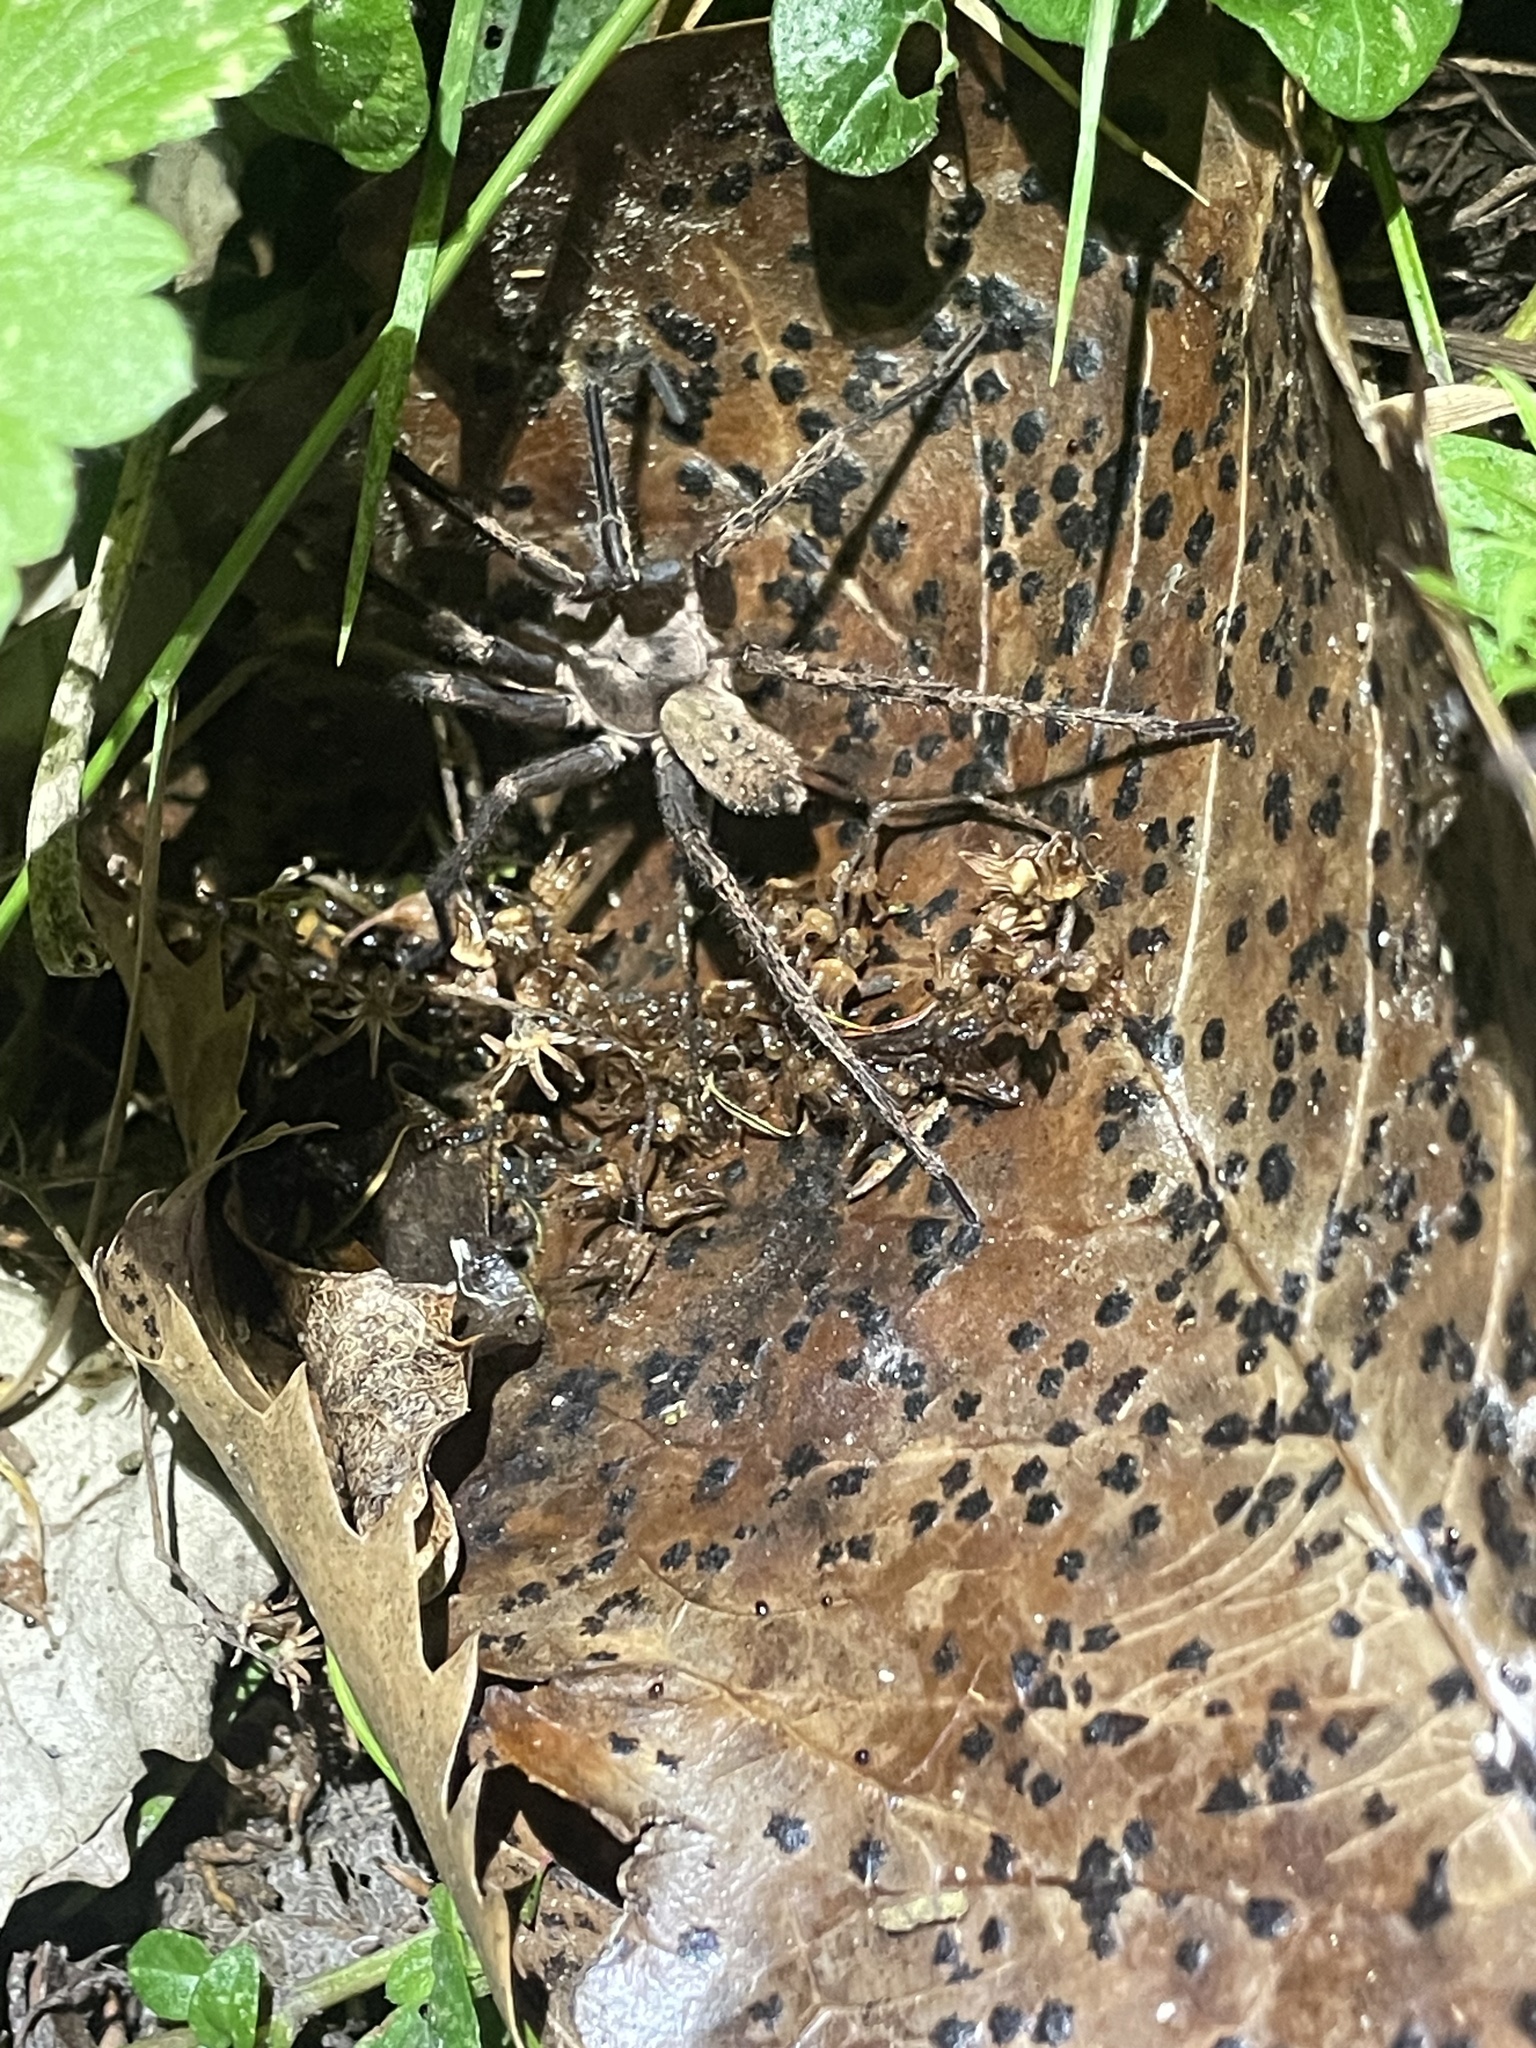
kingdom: Animalia
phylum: Arthropoda
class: Arachnida
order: Araneae
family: Zoropsidae
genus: Uliodon
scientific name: Uliodon
